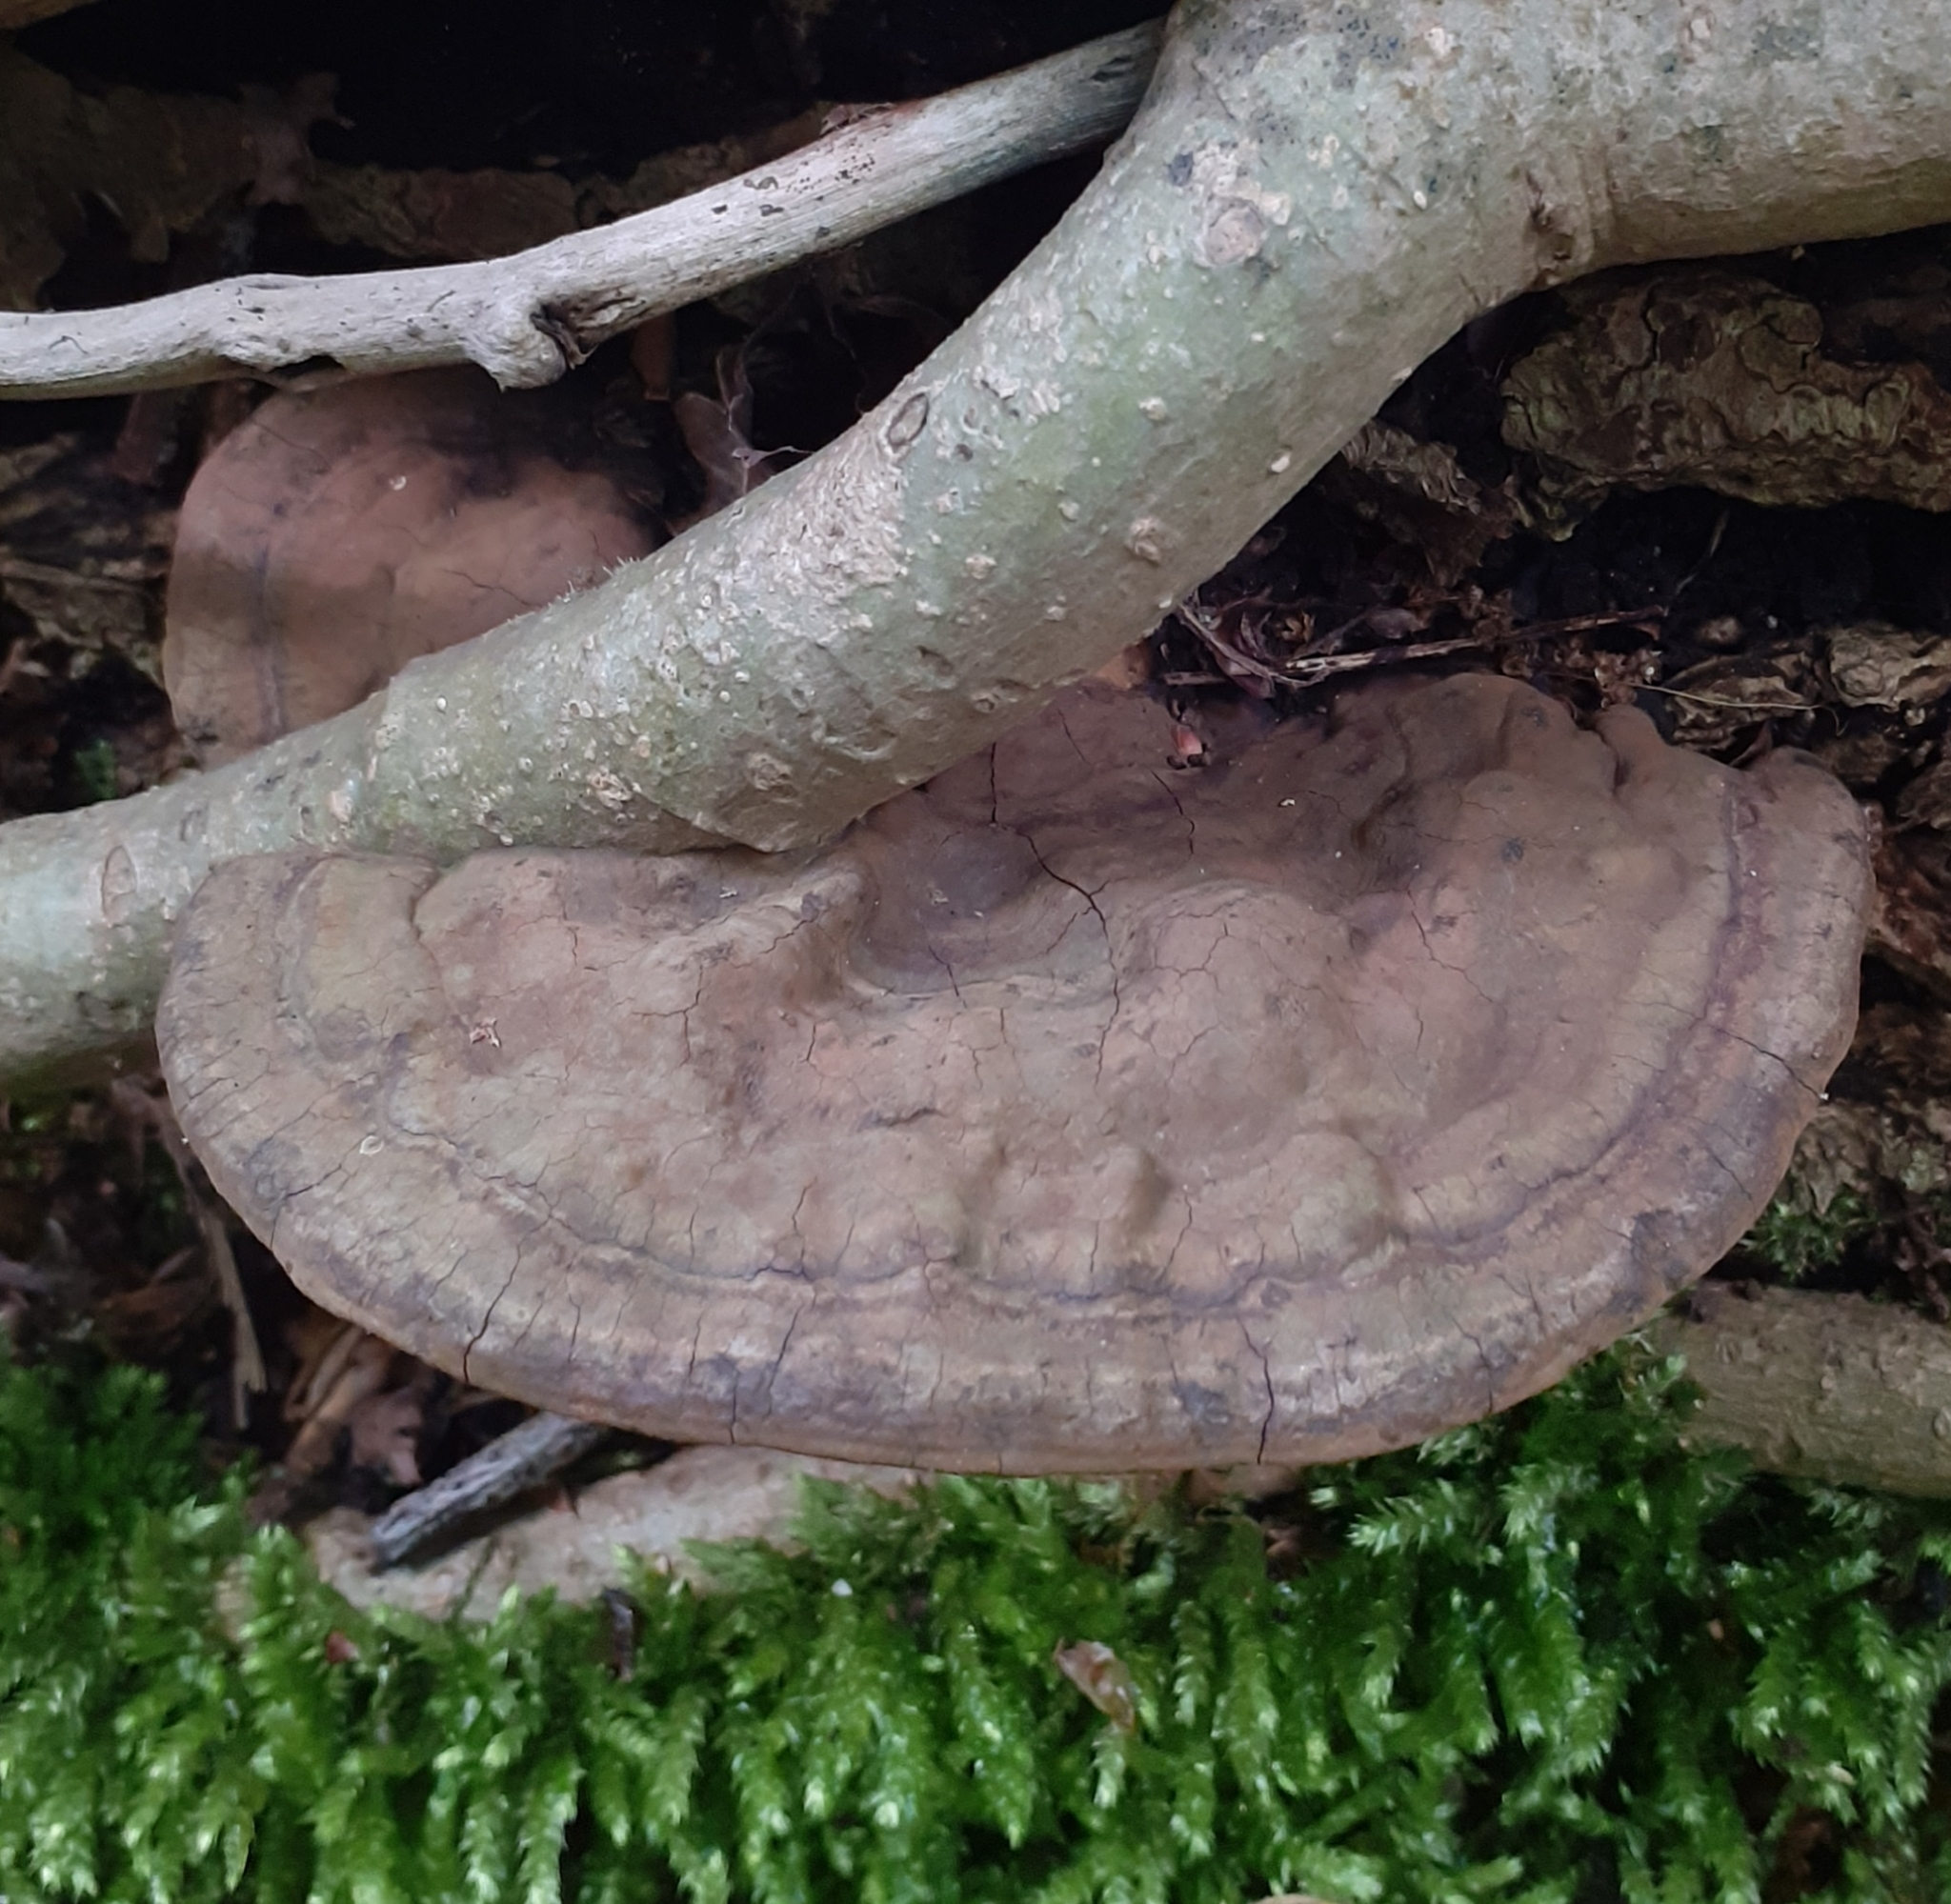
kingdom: Fungi
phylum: Basidiomycota
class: Agaricomycetes
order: Polyporales
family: Polyporaceae
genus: Ganoderma
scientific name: Ganoderma applanatum
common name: Artist's bracket
